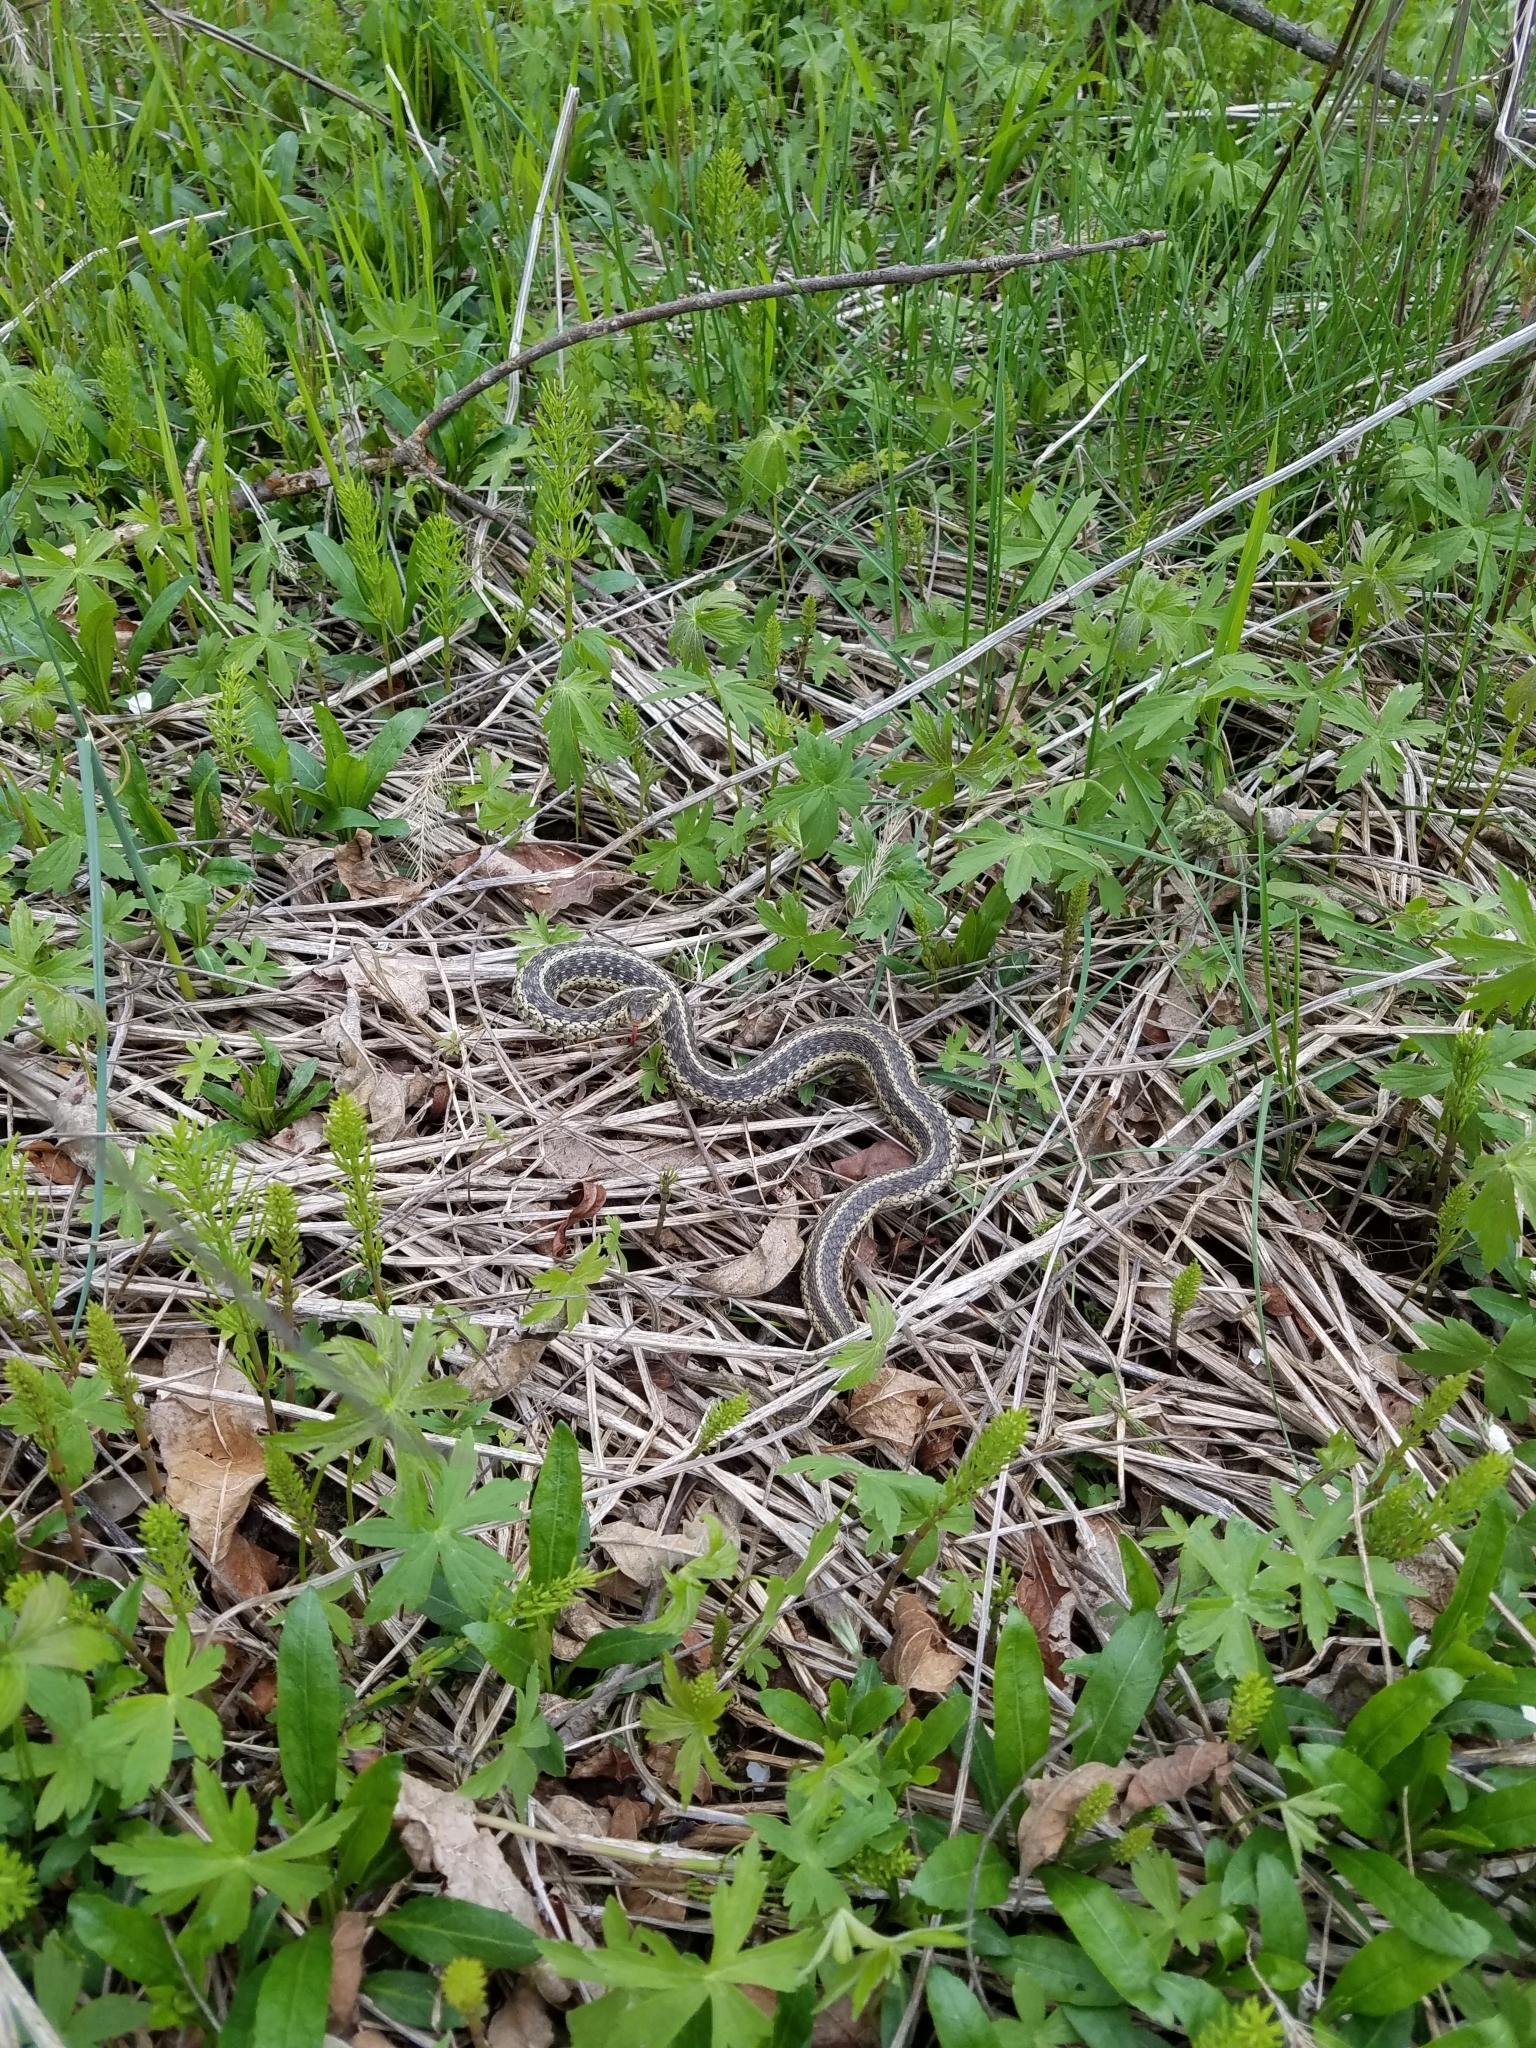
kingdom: Animalia
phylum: Chordata
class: Squamata
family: Colubridae
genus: Thamnophis
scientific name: Thamnophis sirtalis
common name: Common garter snake
